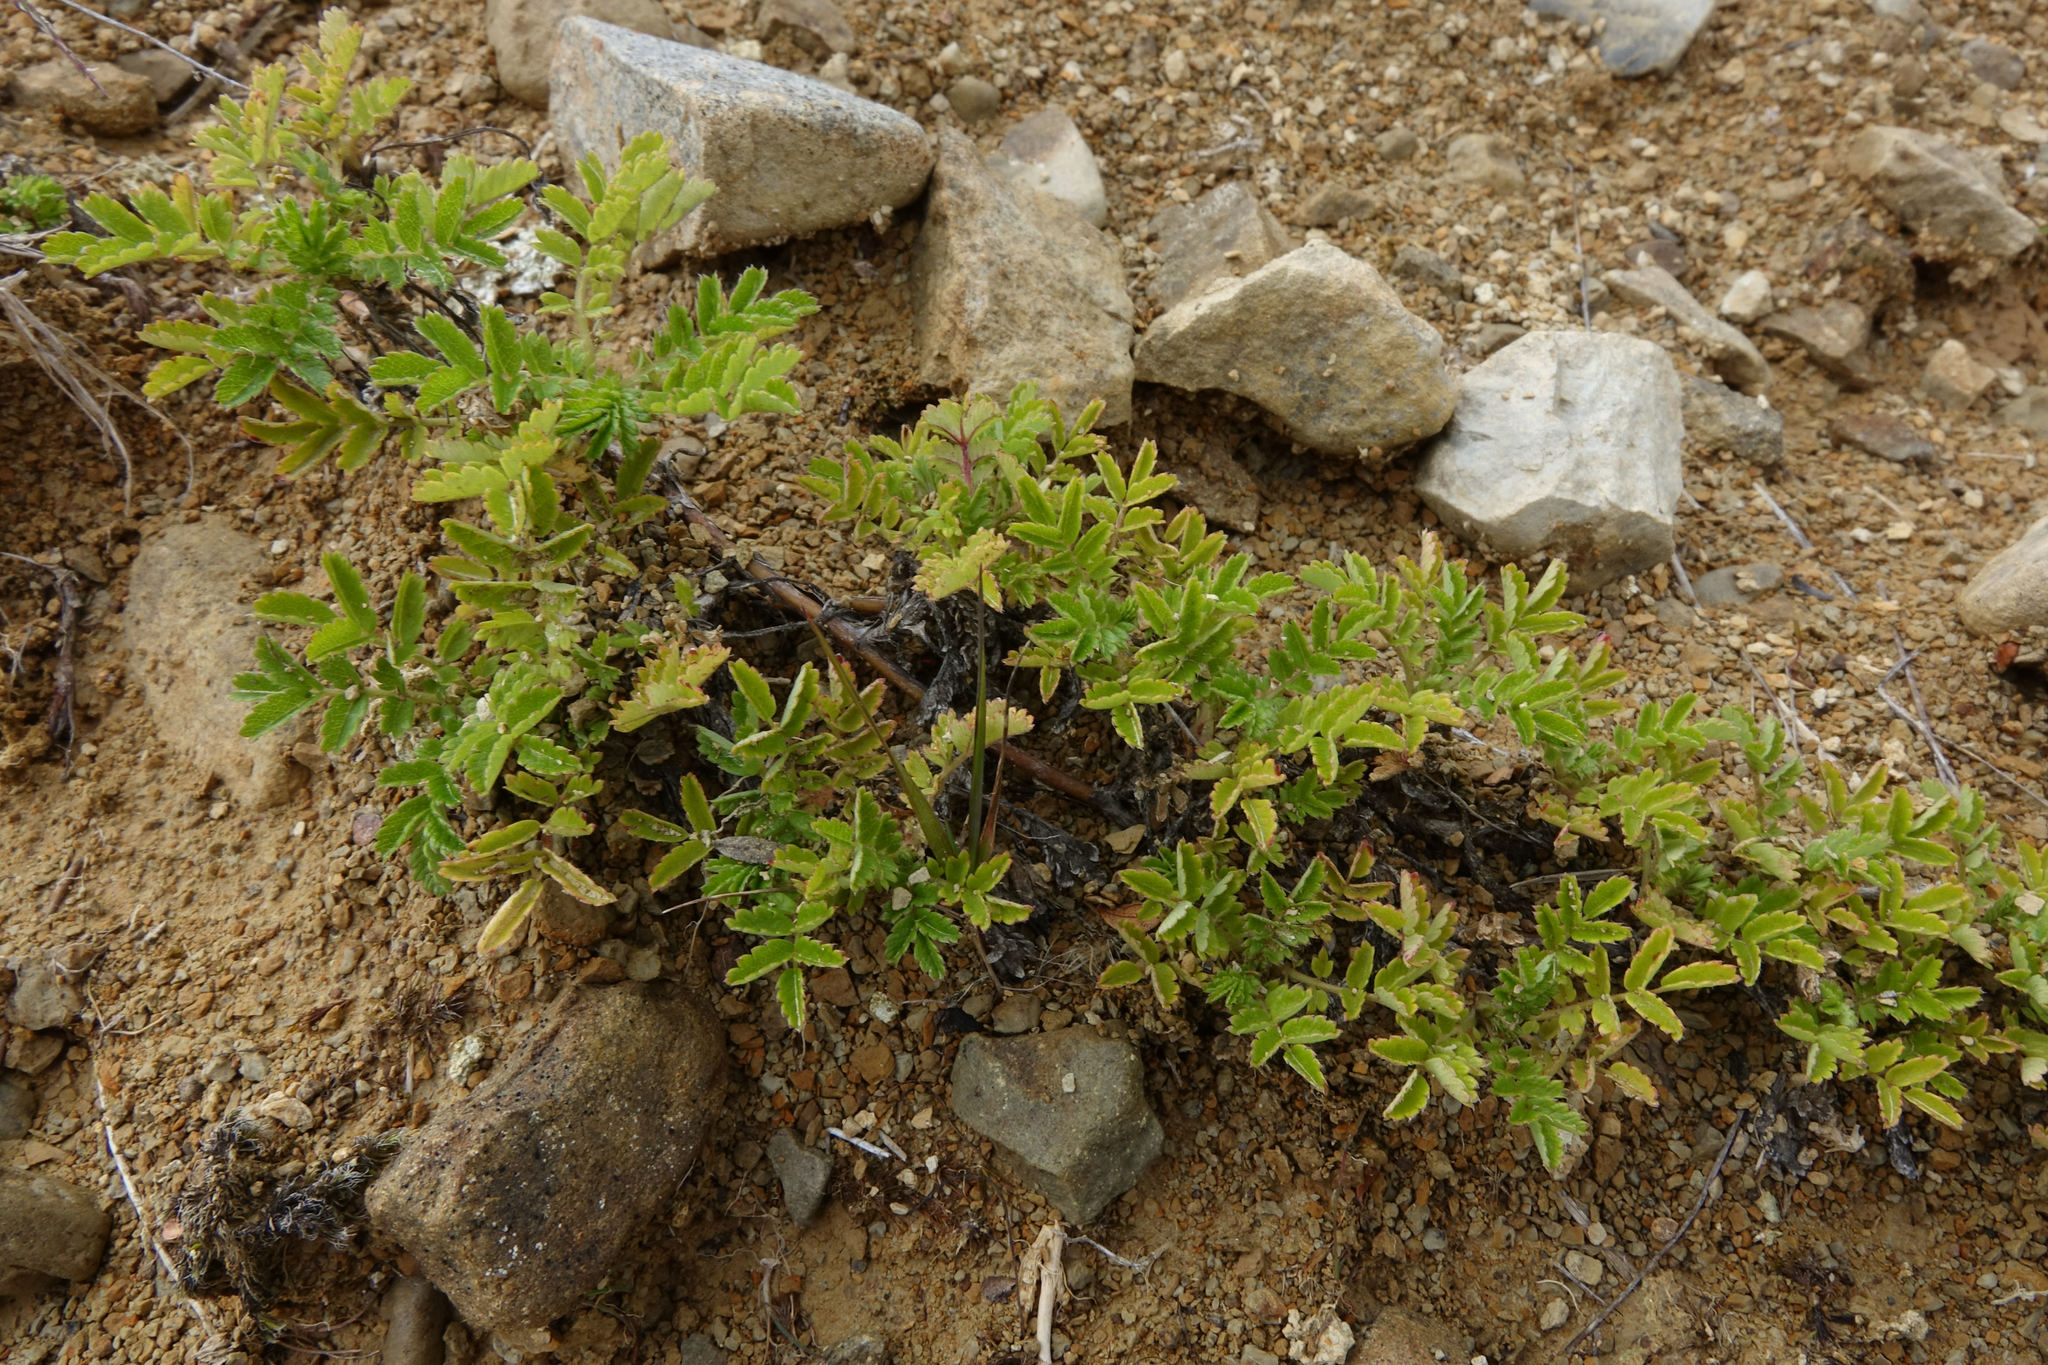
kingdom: Plantae
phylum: Tracheophyta
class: Magnoliopsida
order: Rosales
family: Rosaceae
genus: Acaena
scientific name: Acaena novae-zelandiae
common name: Pirri-pirri-bur
